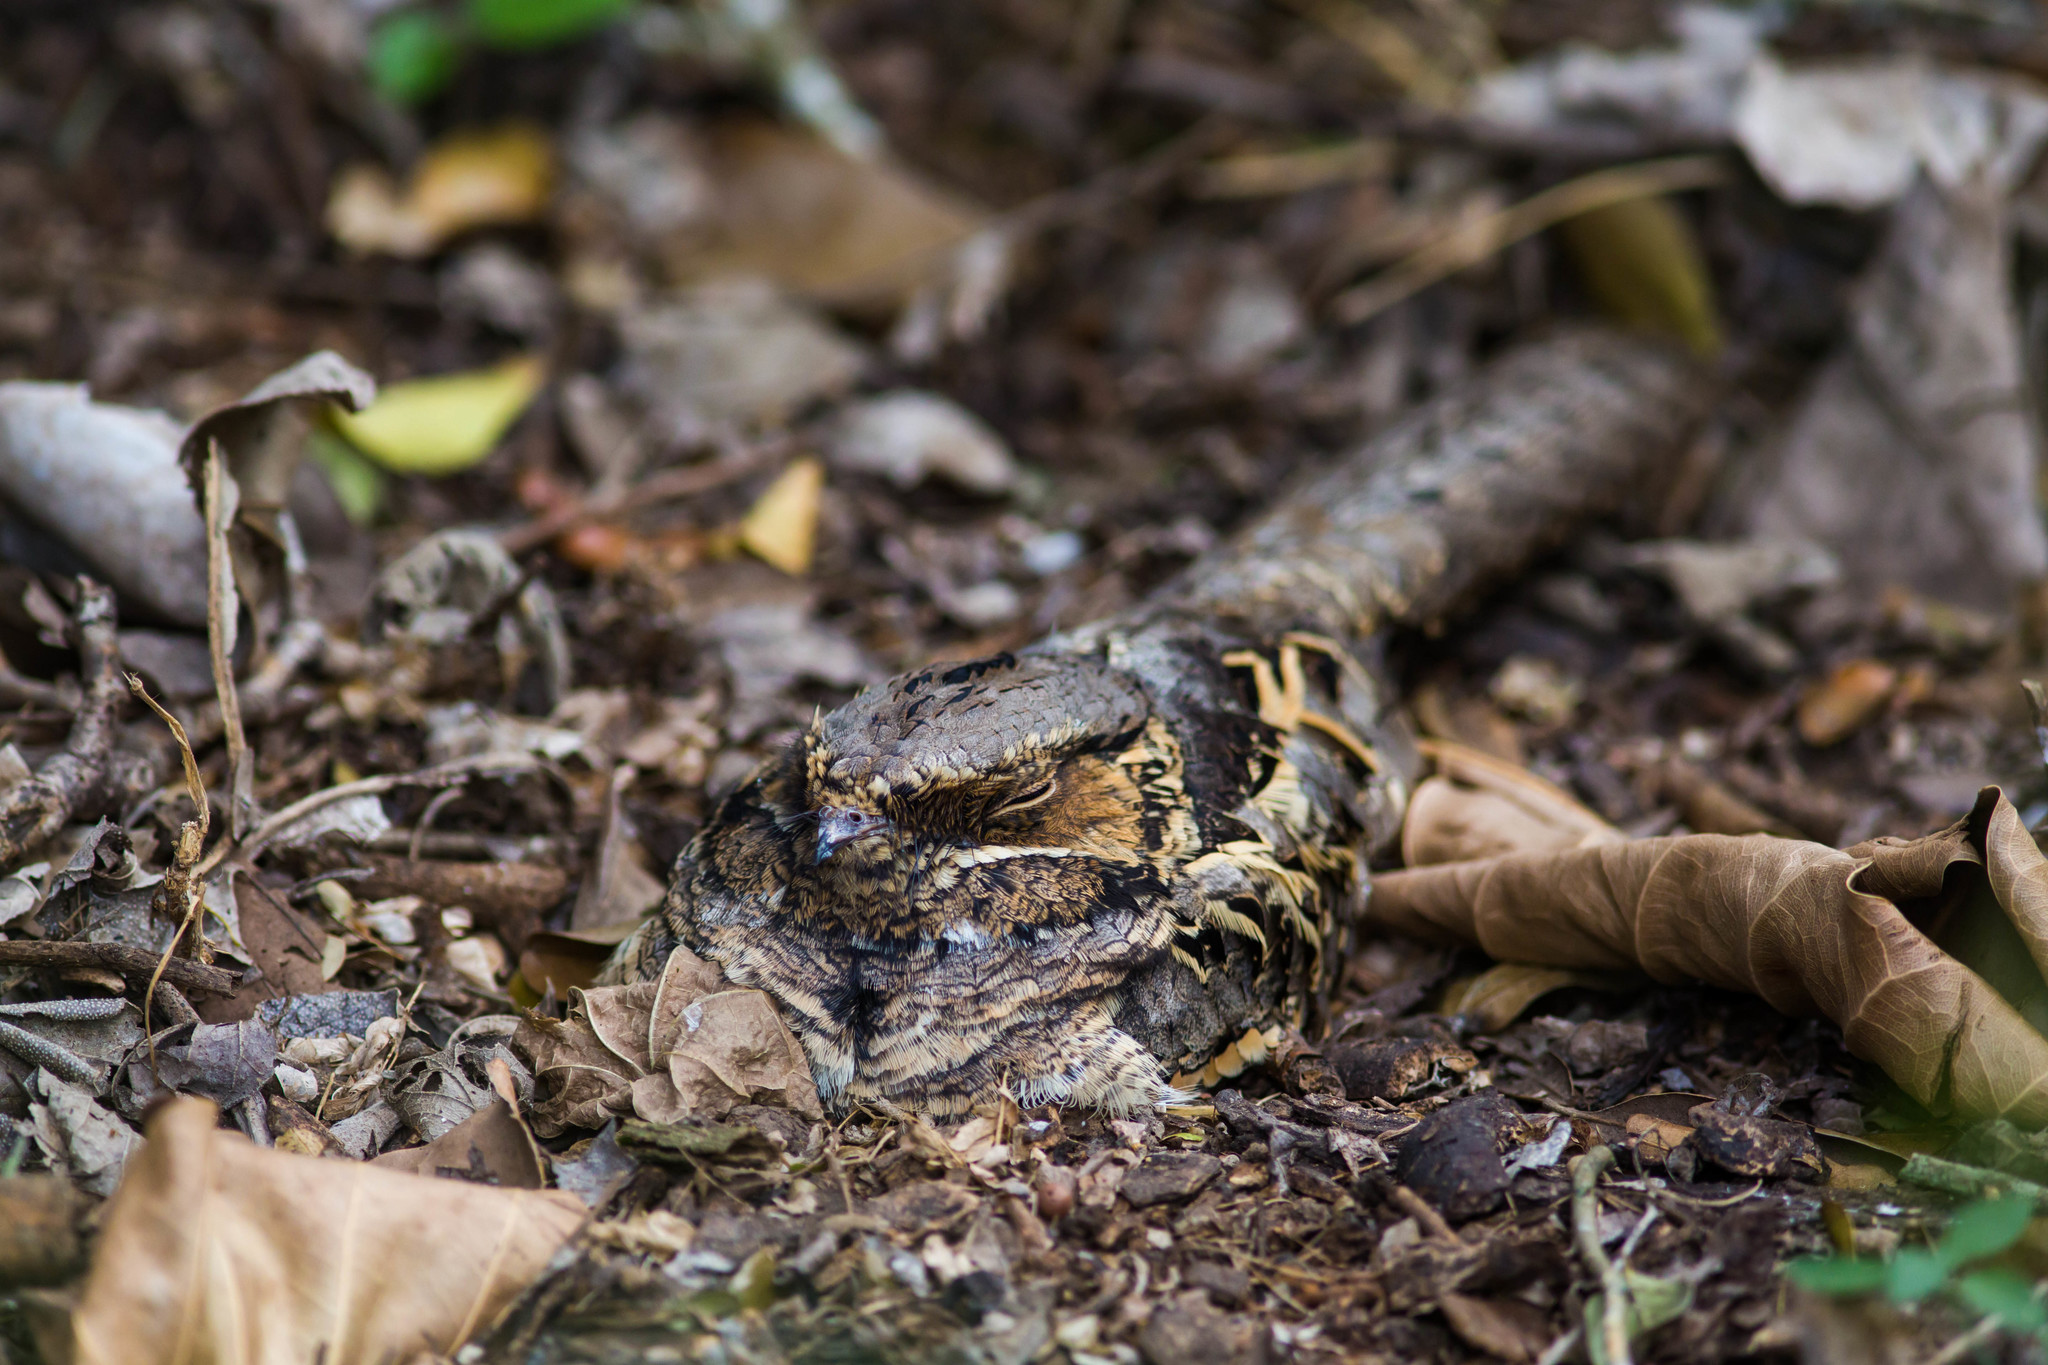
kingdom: Animalia
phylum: Chordata
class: Aves
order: Caprimulgiformes
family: Caprimulgidae
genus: Nyctidromus
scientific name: Nyctidromus albicollis
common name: Pauraque
